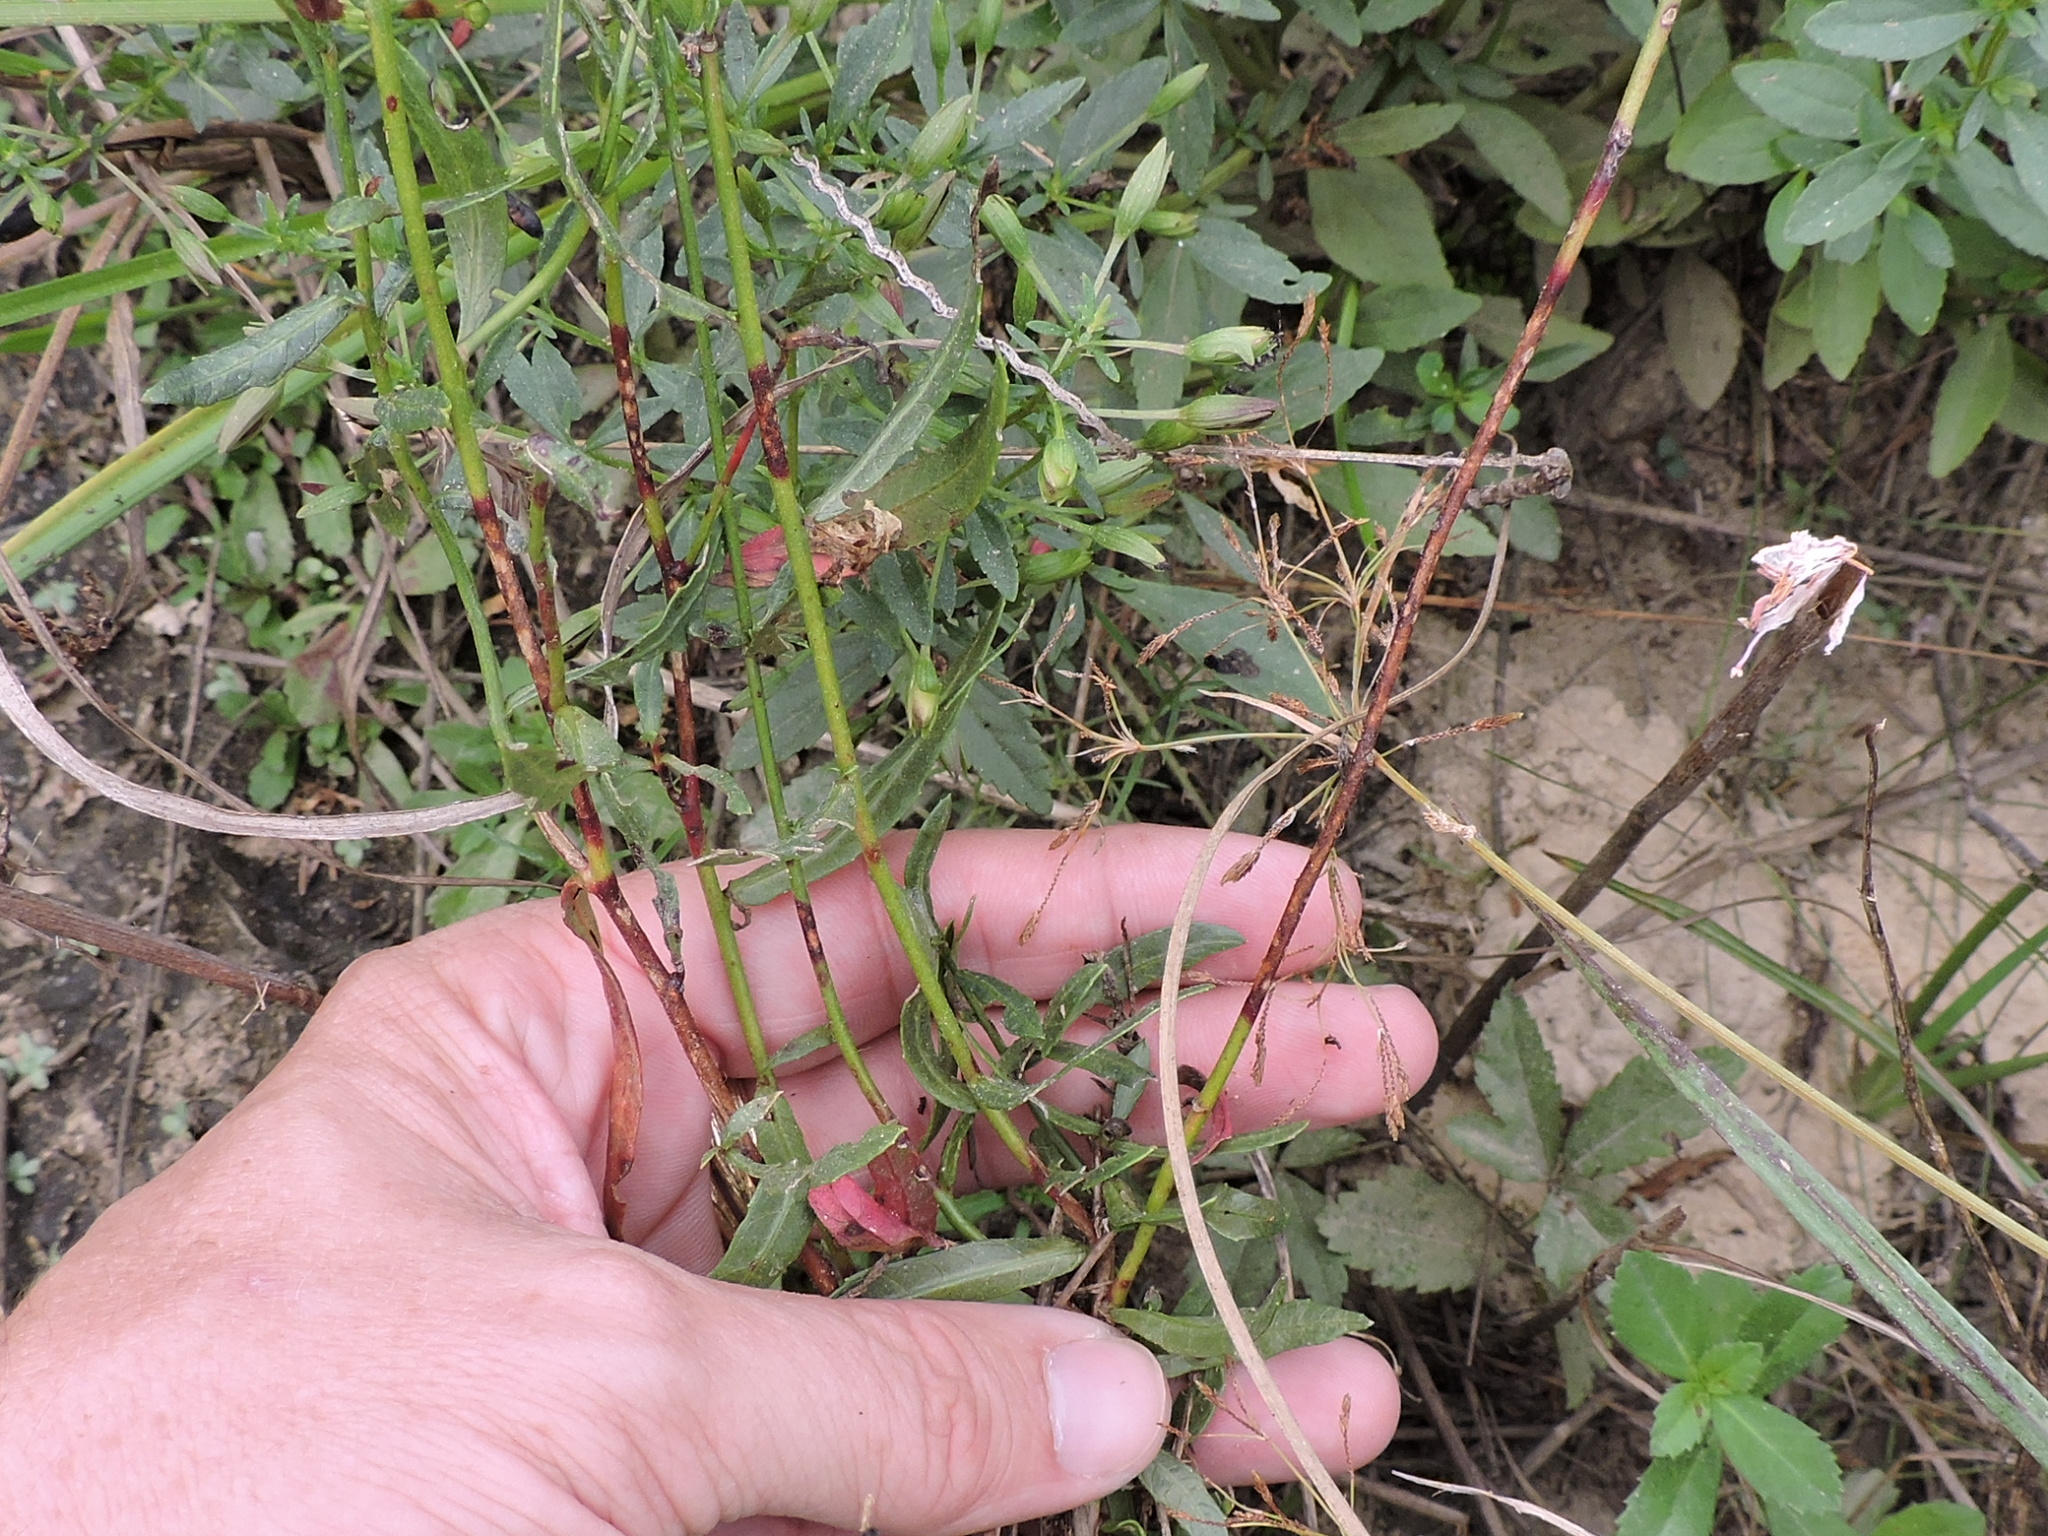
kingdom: Plantae
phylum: Tracheophyta
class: Magnoliopsida
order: Myrtales
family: Onagraceae
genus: Oenothera
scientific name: Oenothera lindheimeri
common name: Lindheimer's beeblossom
